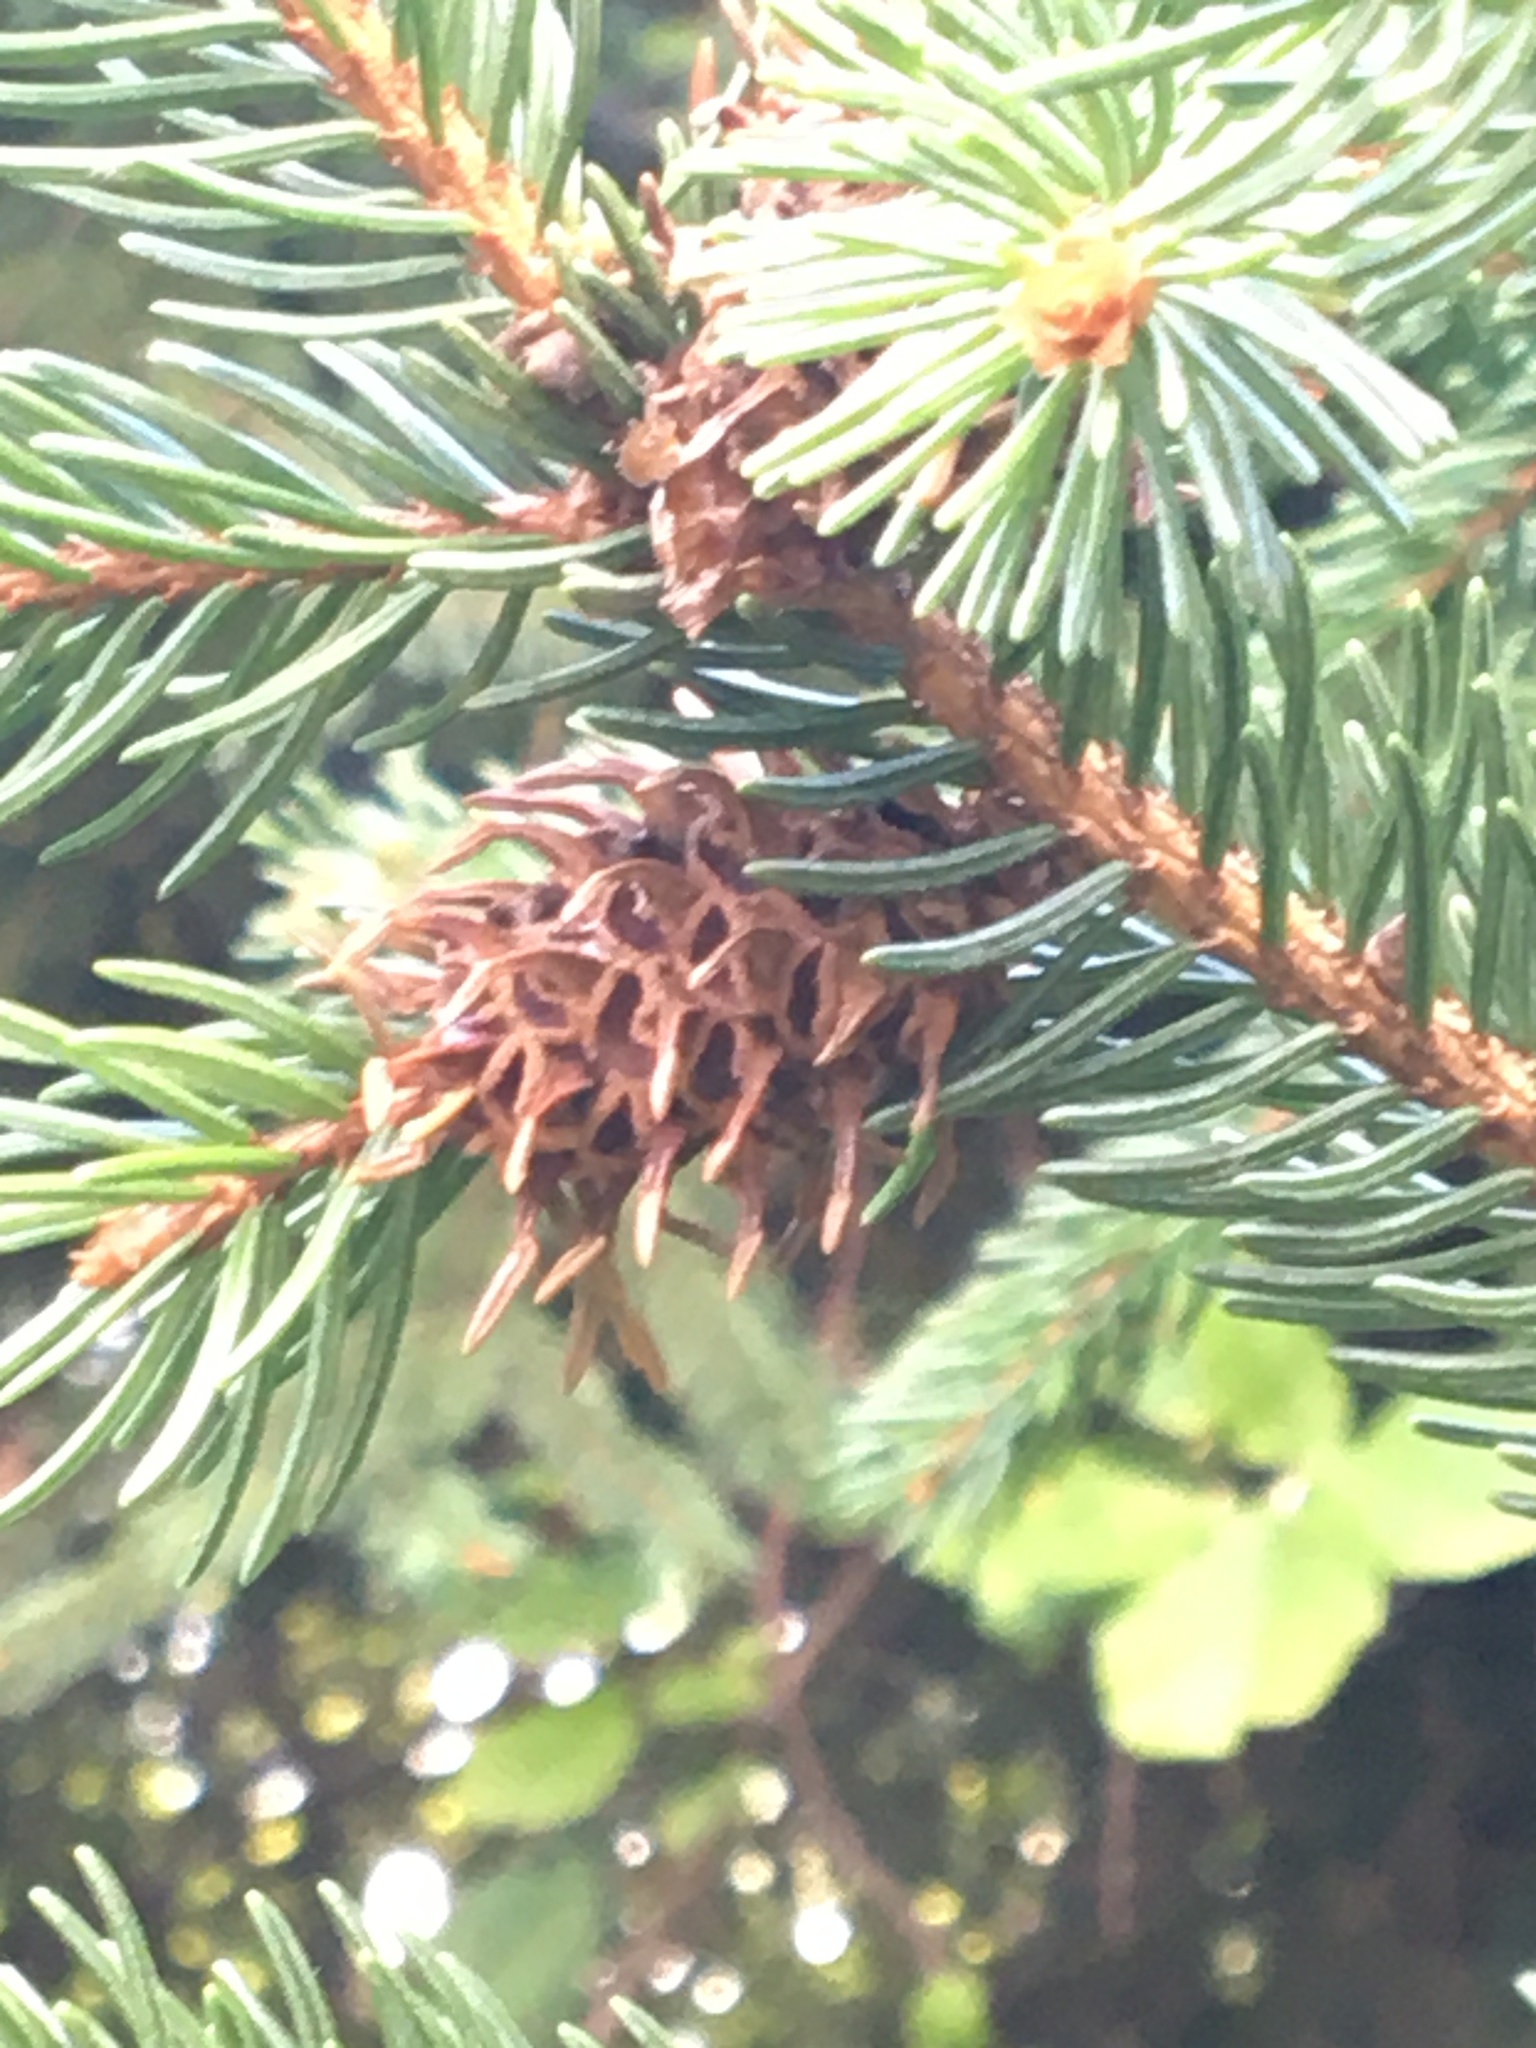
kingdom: Animalia
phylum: Arthropoda
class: Insecta
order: Hemiptera
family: Adelgidae
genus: Adelges
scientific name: Adelges abietis
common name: Eastern spruce gall adelgid
